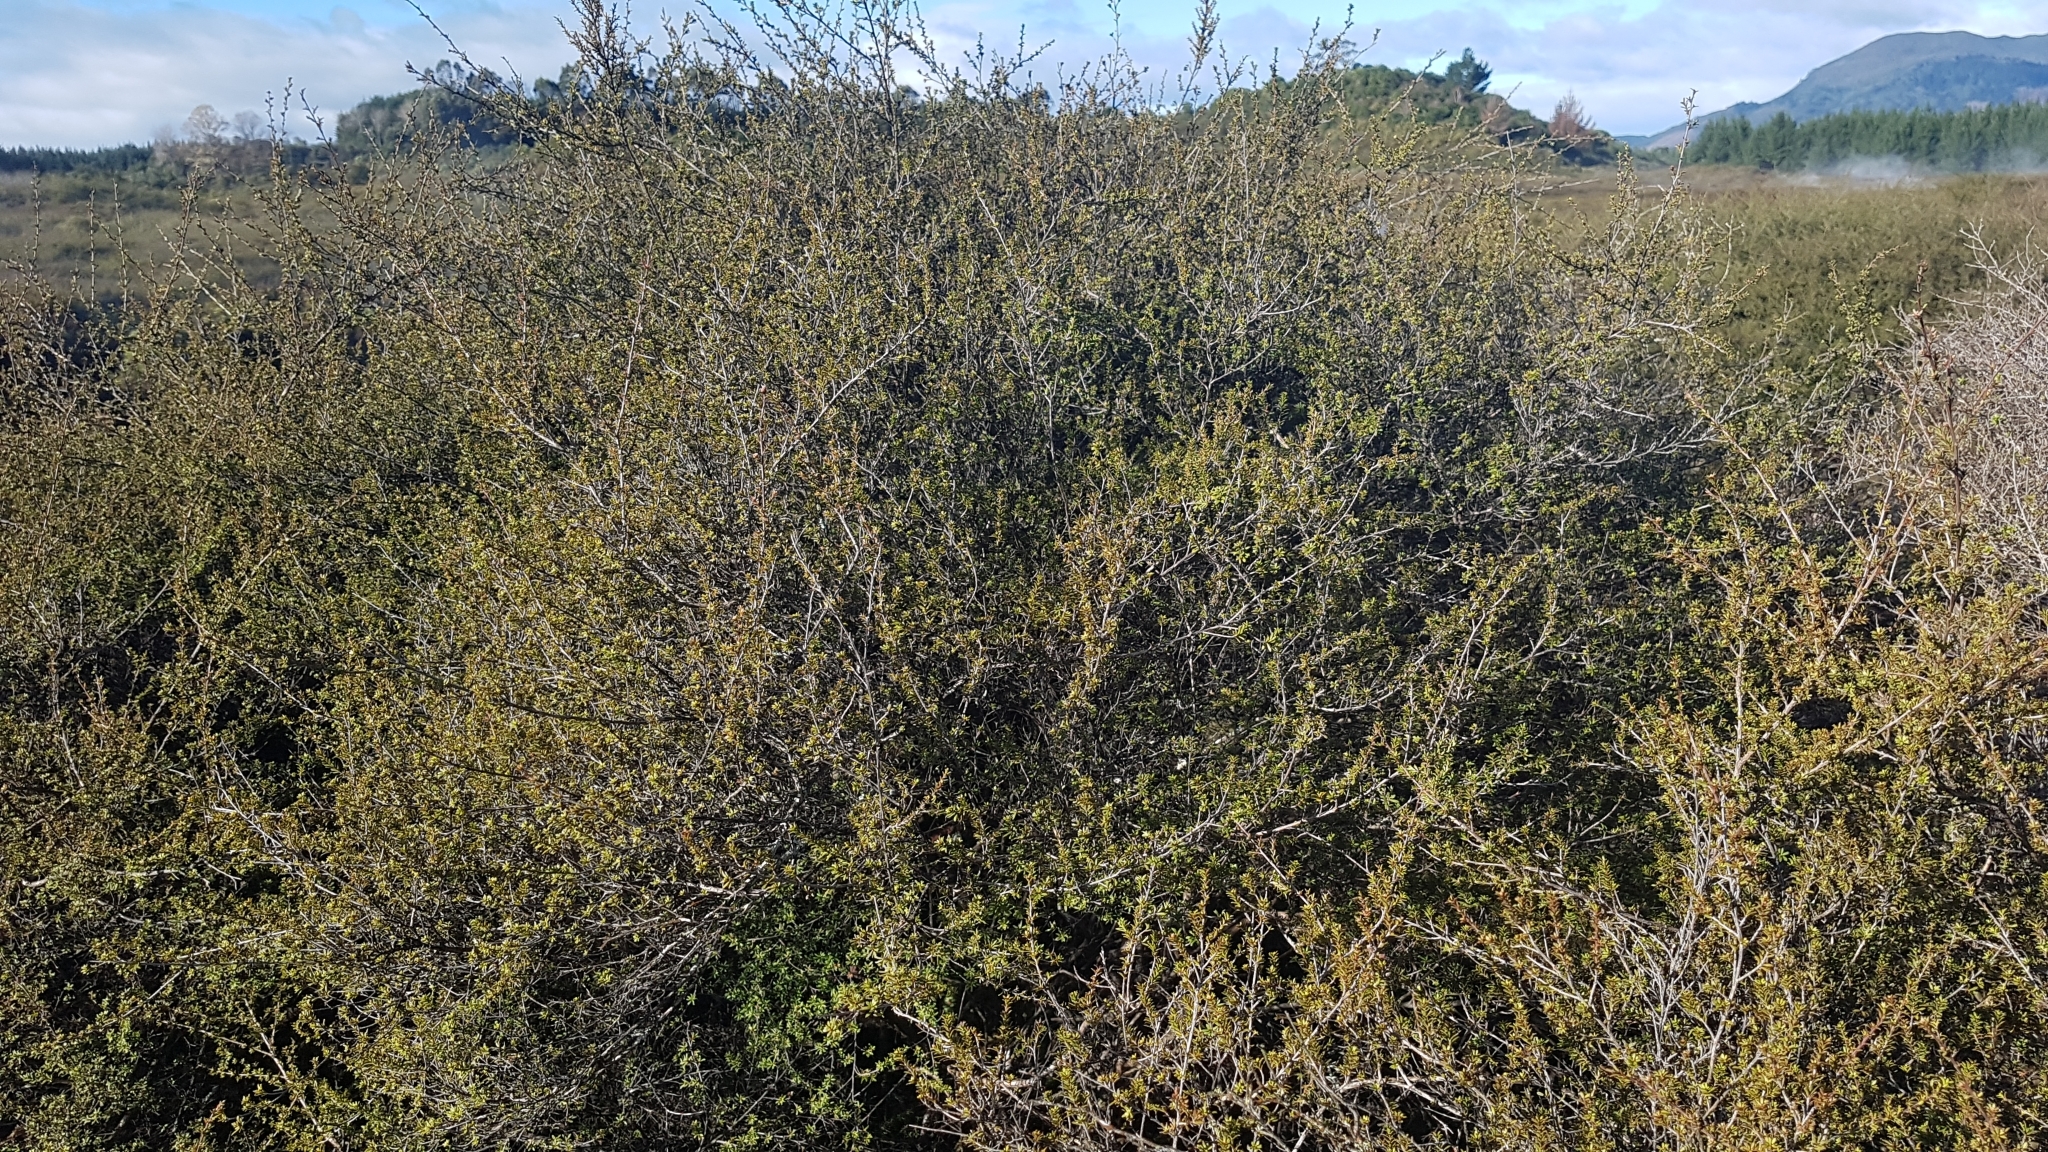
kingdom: Plantae
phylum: Tracheophyta
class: Magnoliopsida
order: Myrtales
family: Myrtaceae
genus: Kunzea
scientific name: Kunzea tenuicaulis
